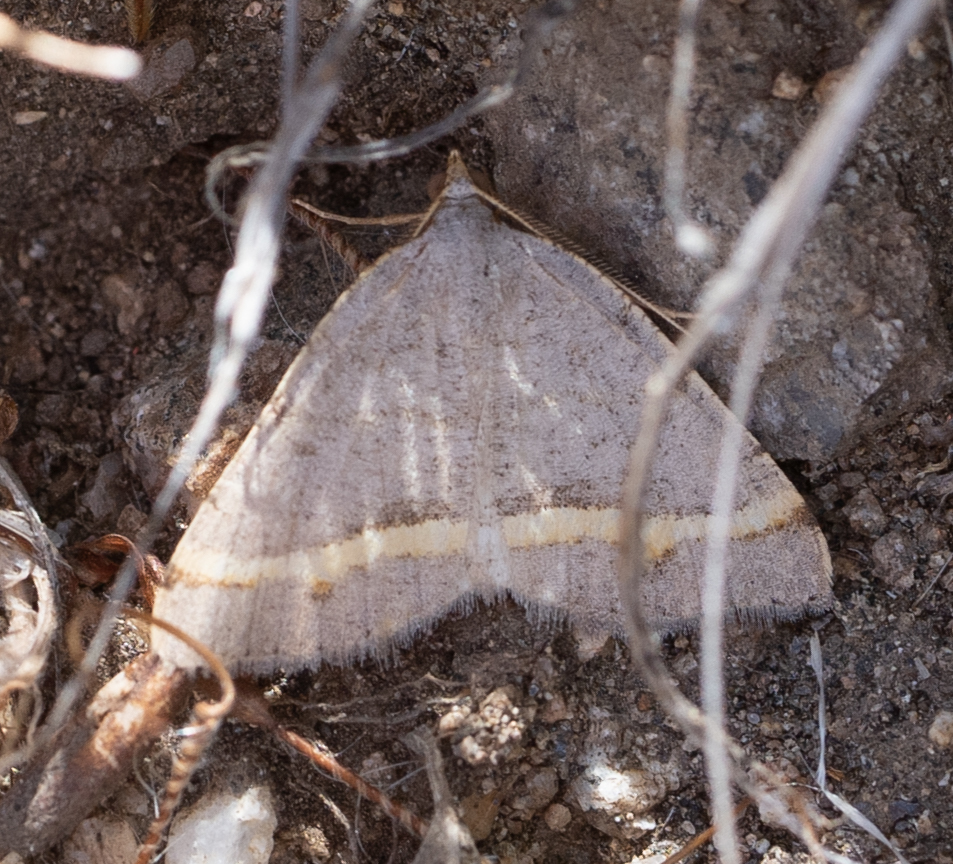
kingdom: Animalia
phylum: Arthropoda
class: Insecta
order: Lepidoptera
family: Geometridae
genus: Macaria
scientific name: Macaria guenearia
